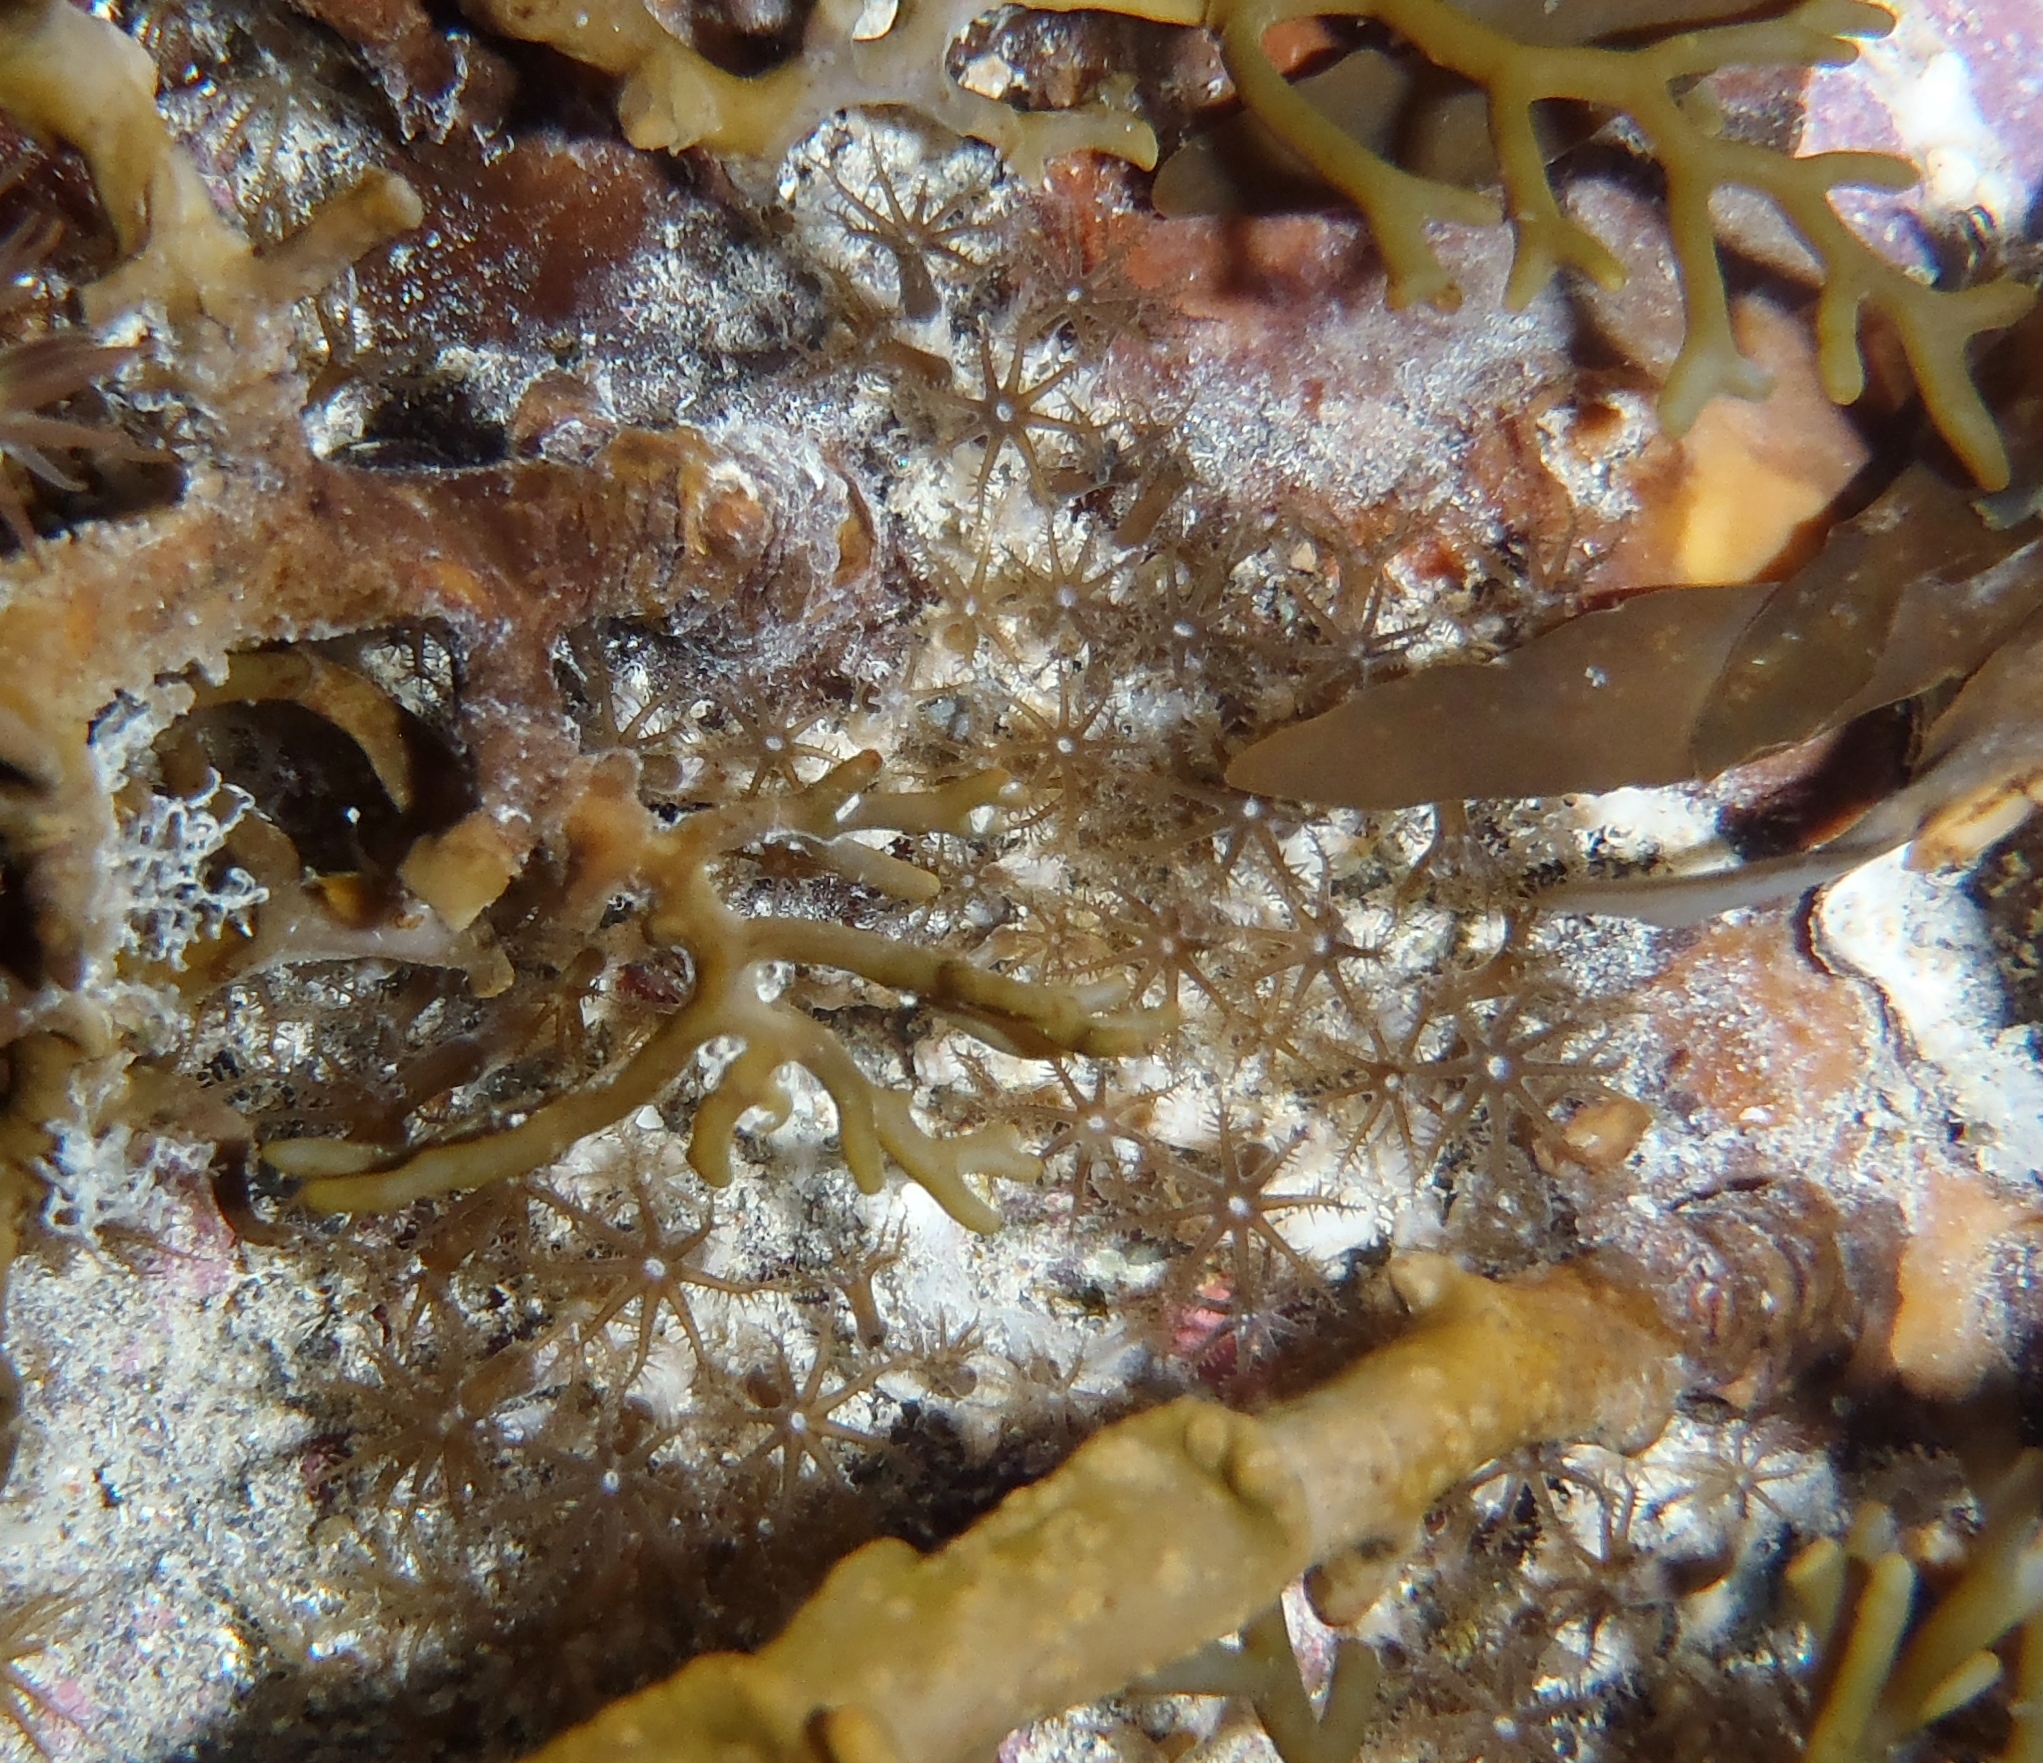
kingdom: Animalia
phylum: Cnidaria
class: Anthozoa
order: Malacalcyonacea
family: Clavulariidae
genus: Clavularia
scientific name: Clavularia novaezealandiae
